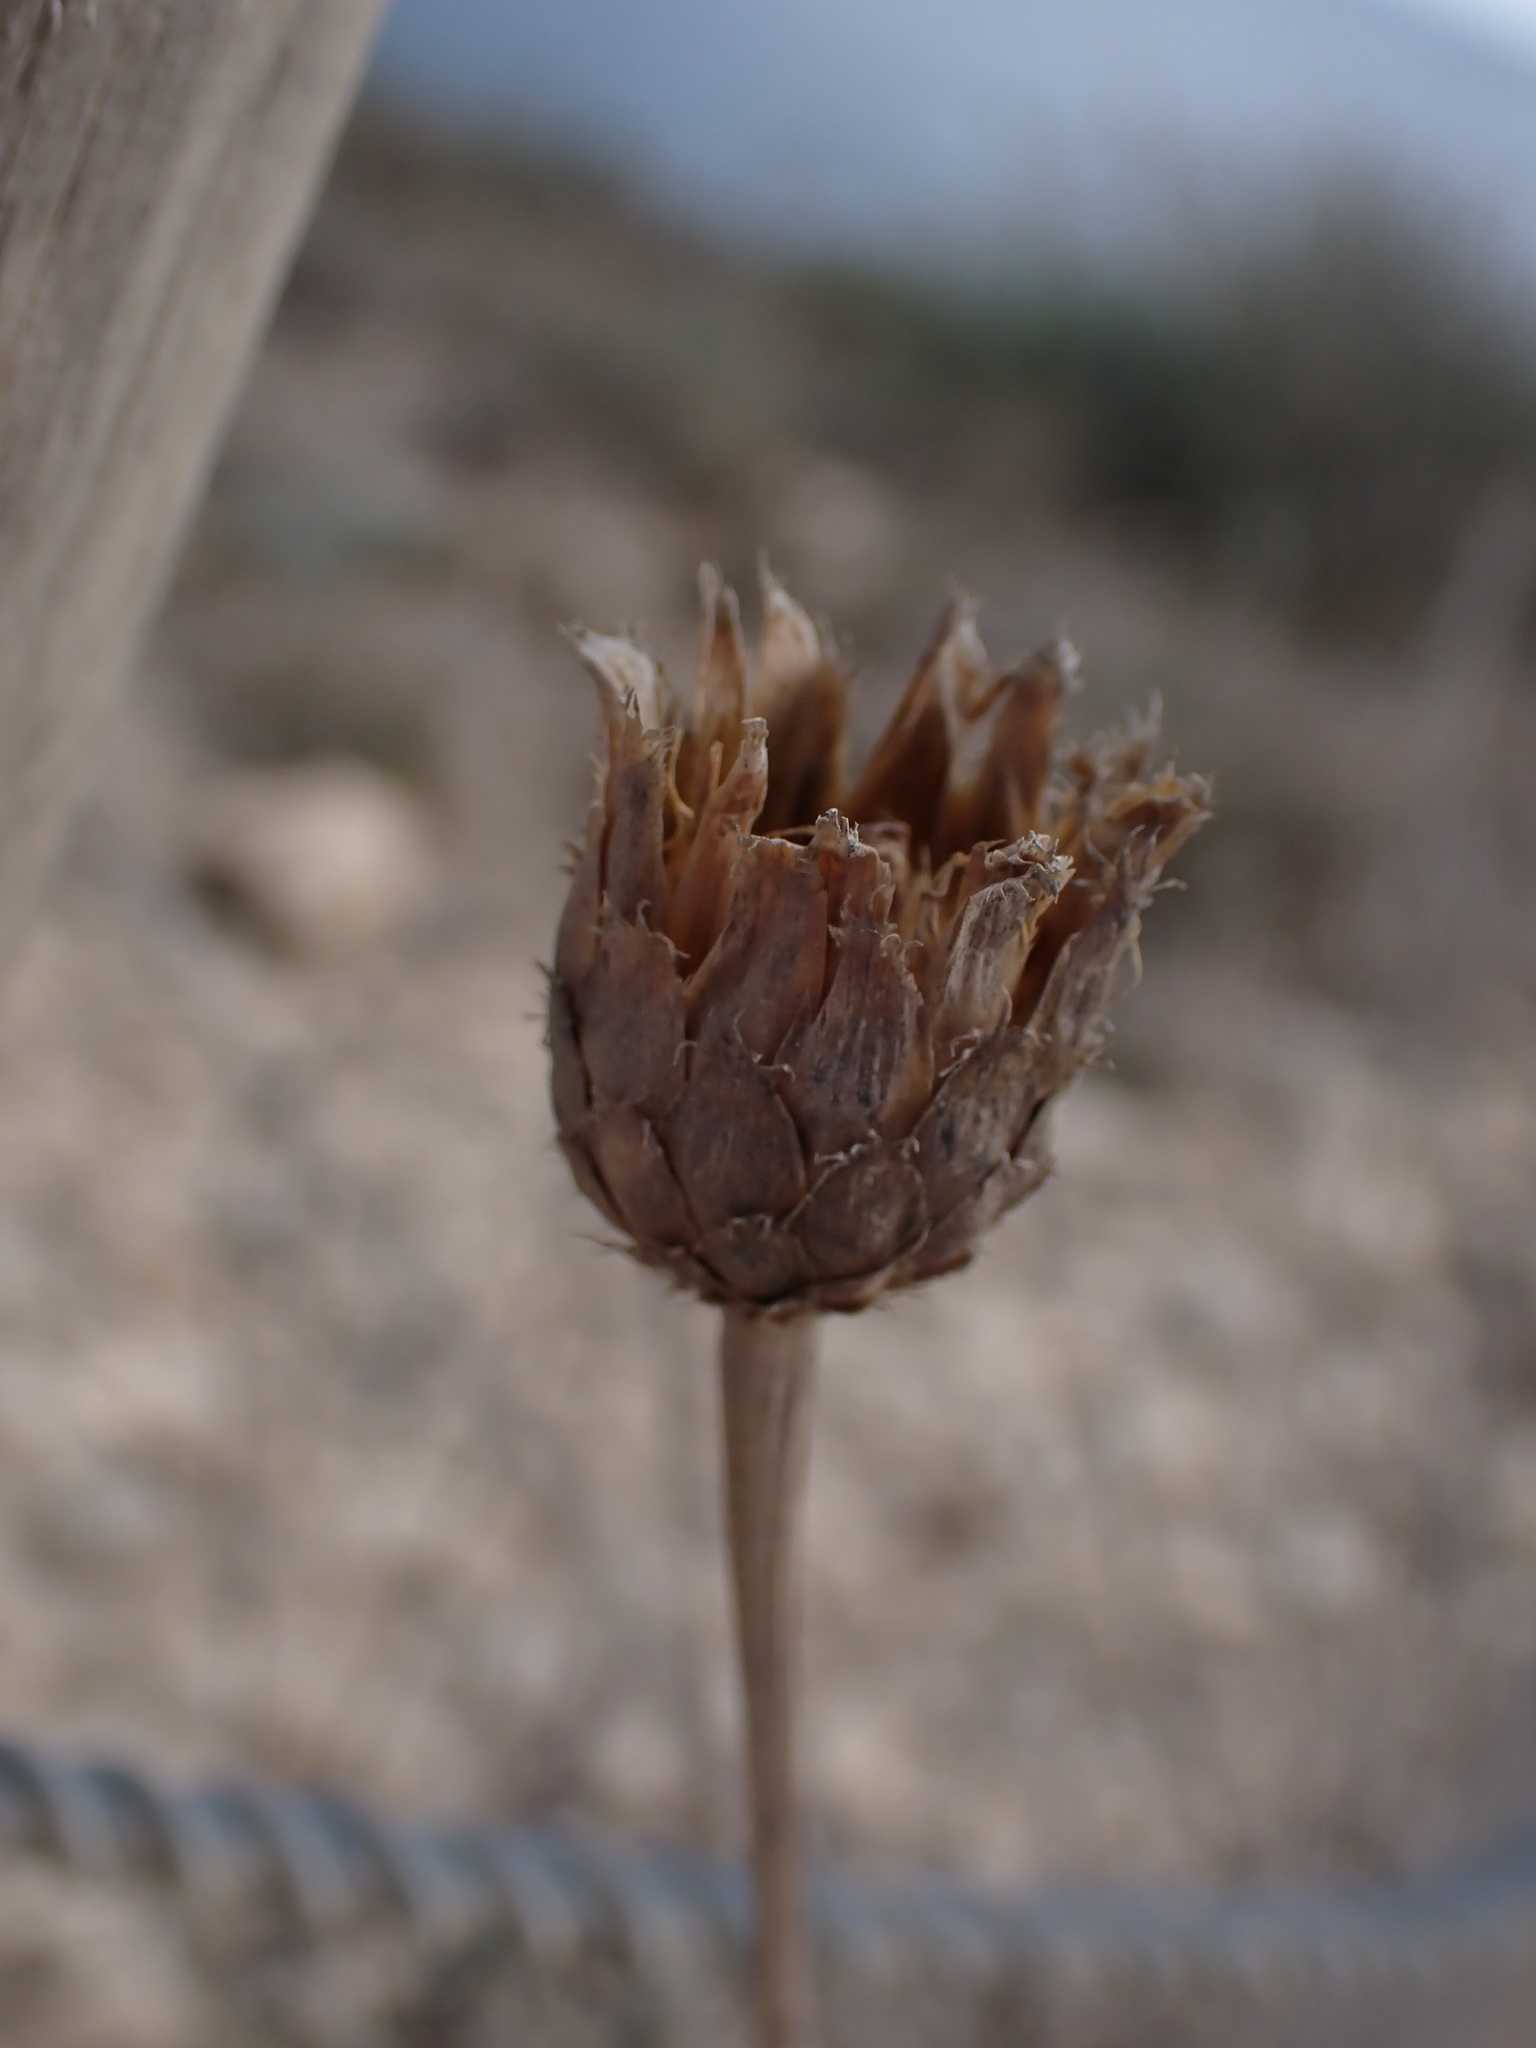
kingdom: Plantae
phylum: Tracheophyta
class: Magnoliopsida
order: Asterales
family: Asteraceae
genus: Cheirolophus
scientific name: Cheirolophus intybaceus
